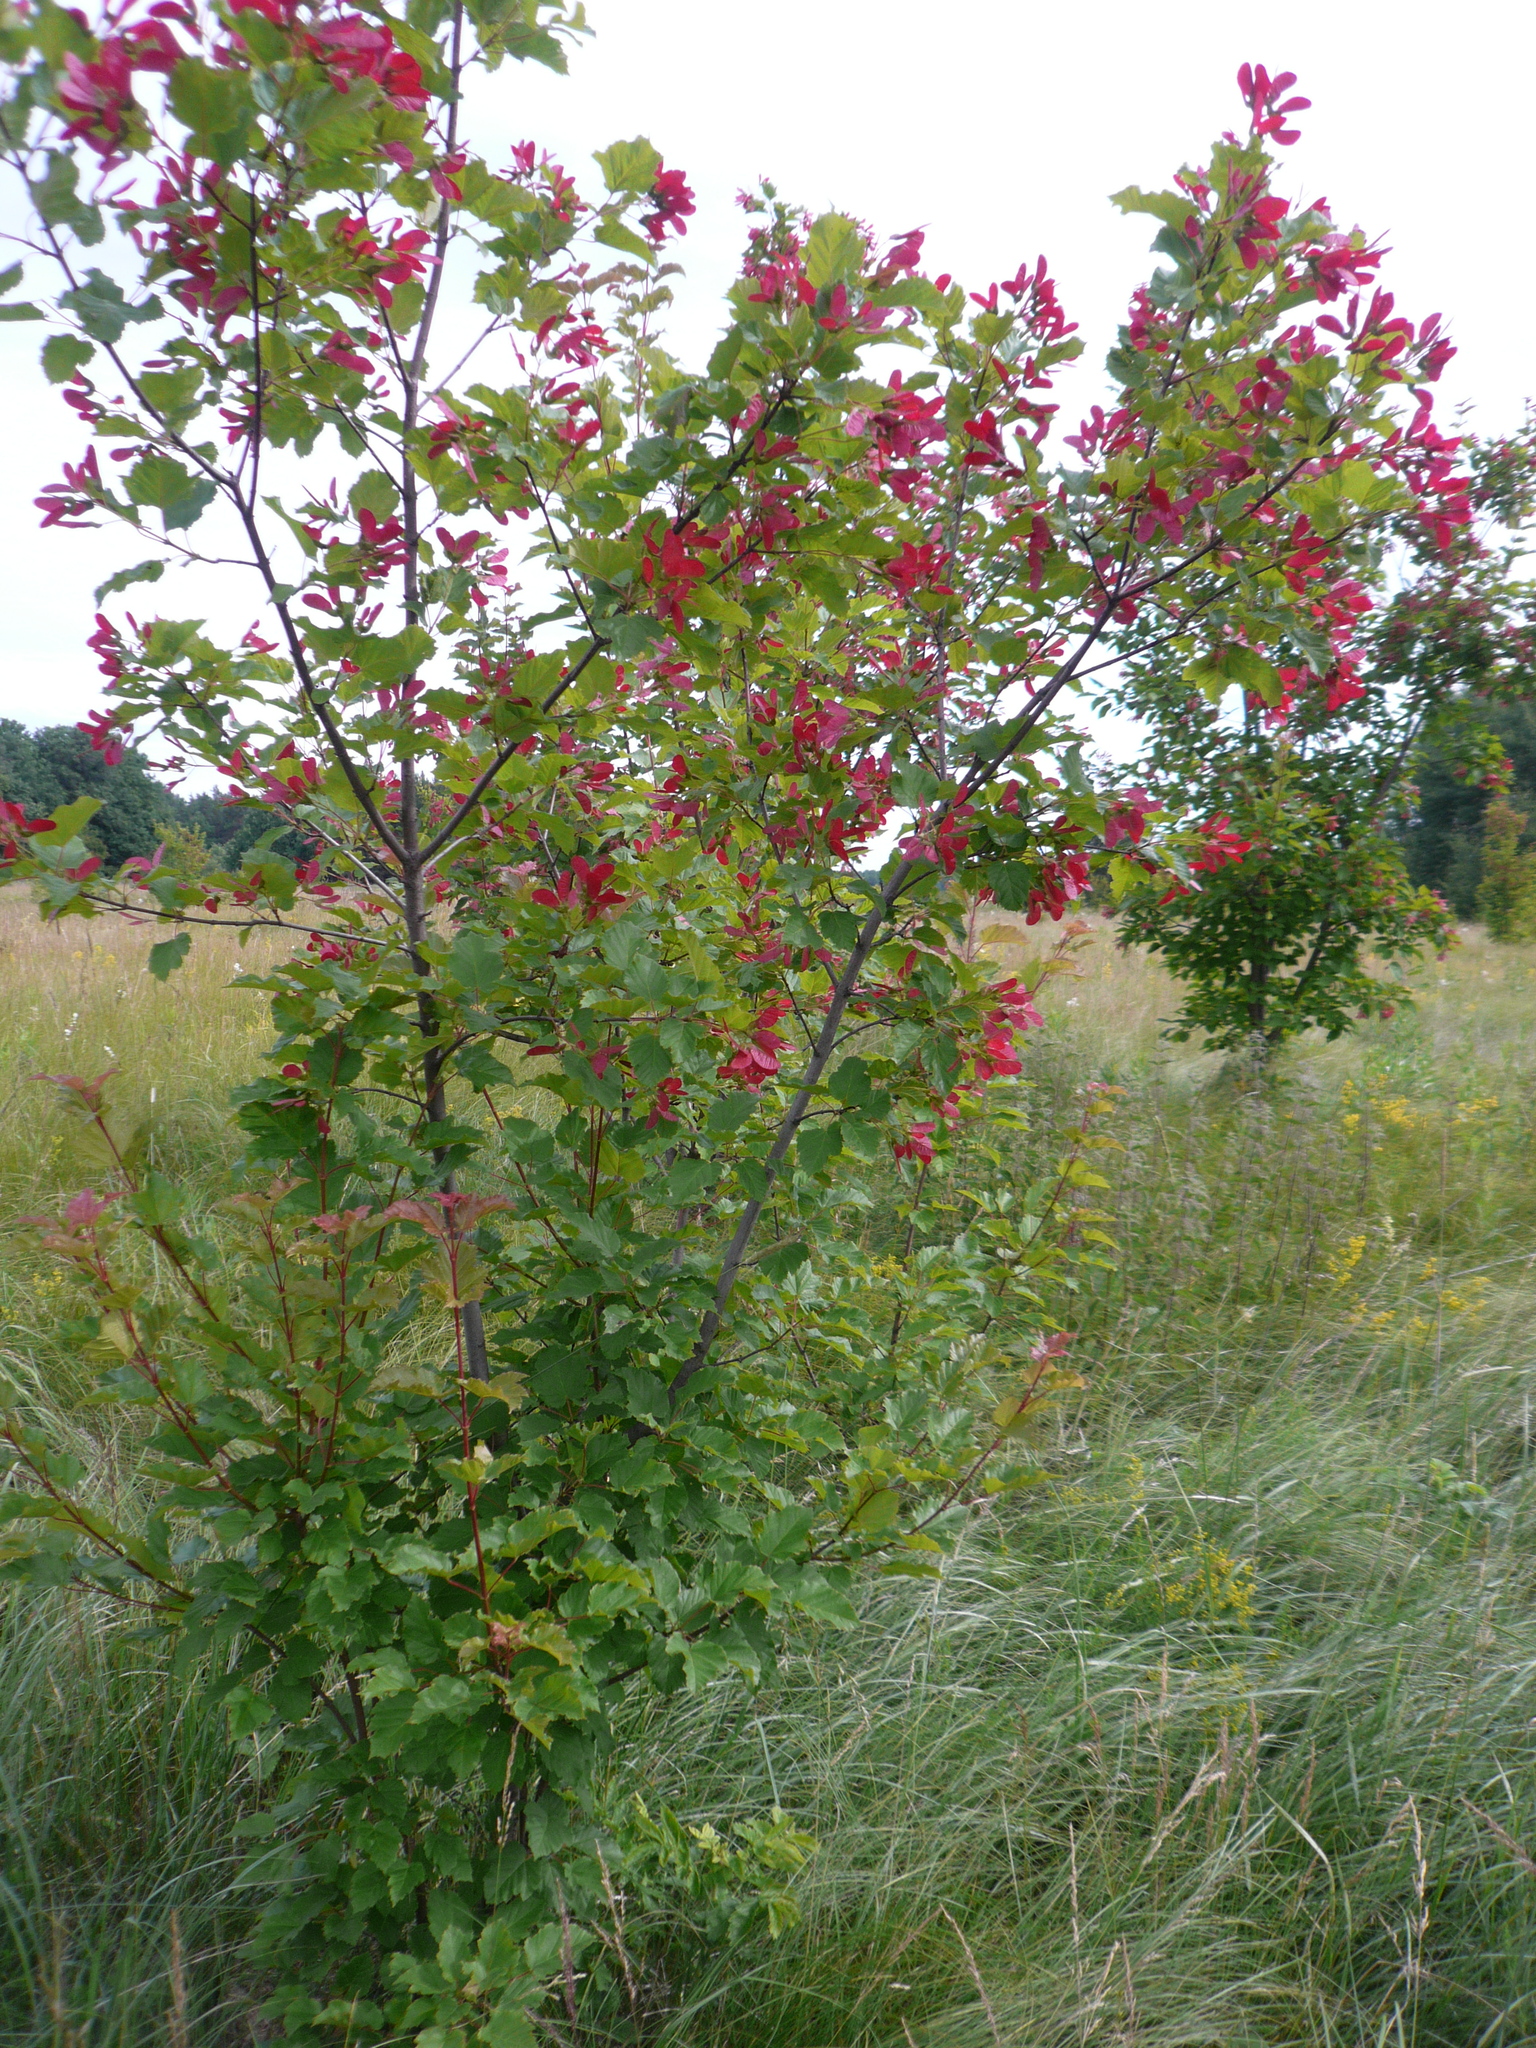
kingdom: Plantae
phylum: Tracheophyta
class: Magnoliopsida
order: Sapindales
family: Sapindaceae
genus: Acer
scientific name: Acer tataricum
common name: Tartar maple
